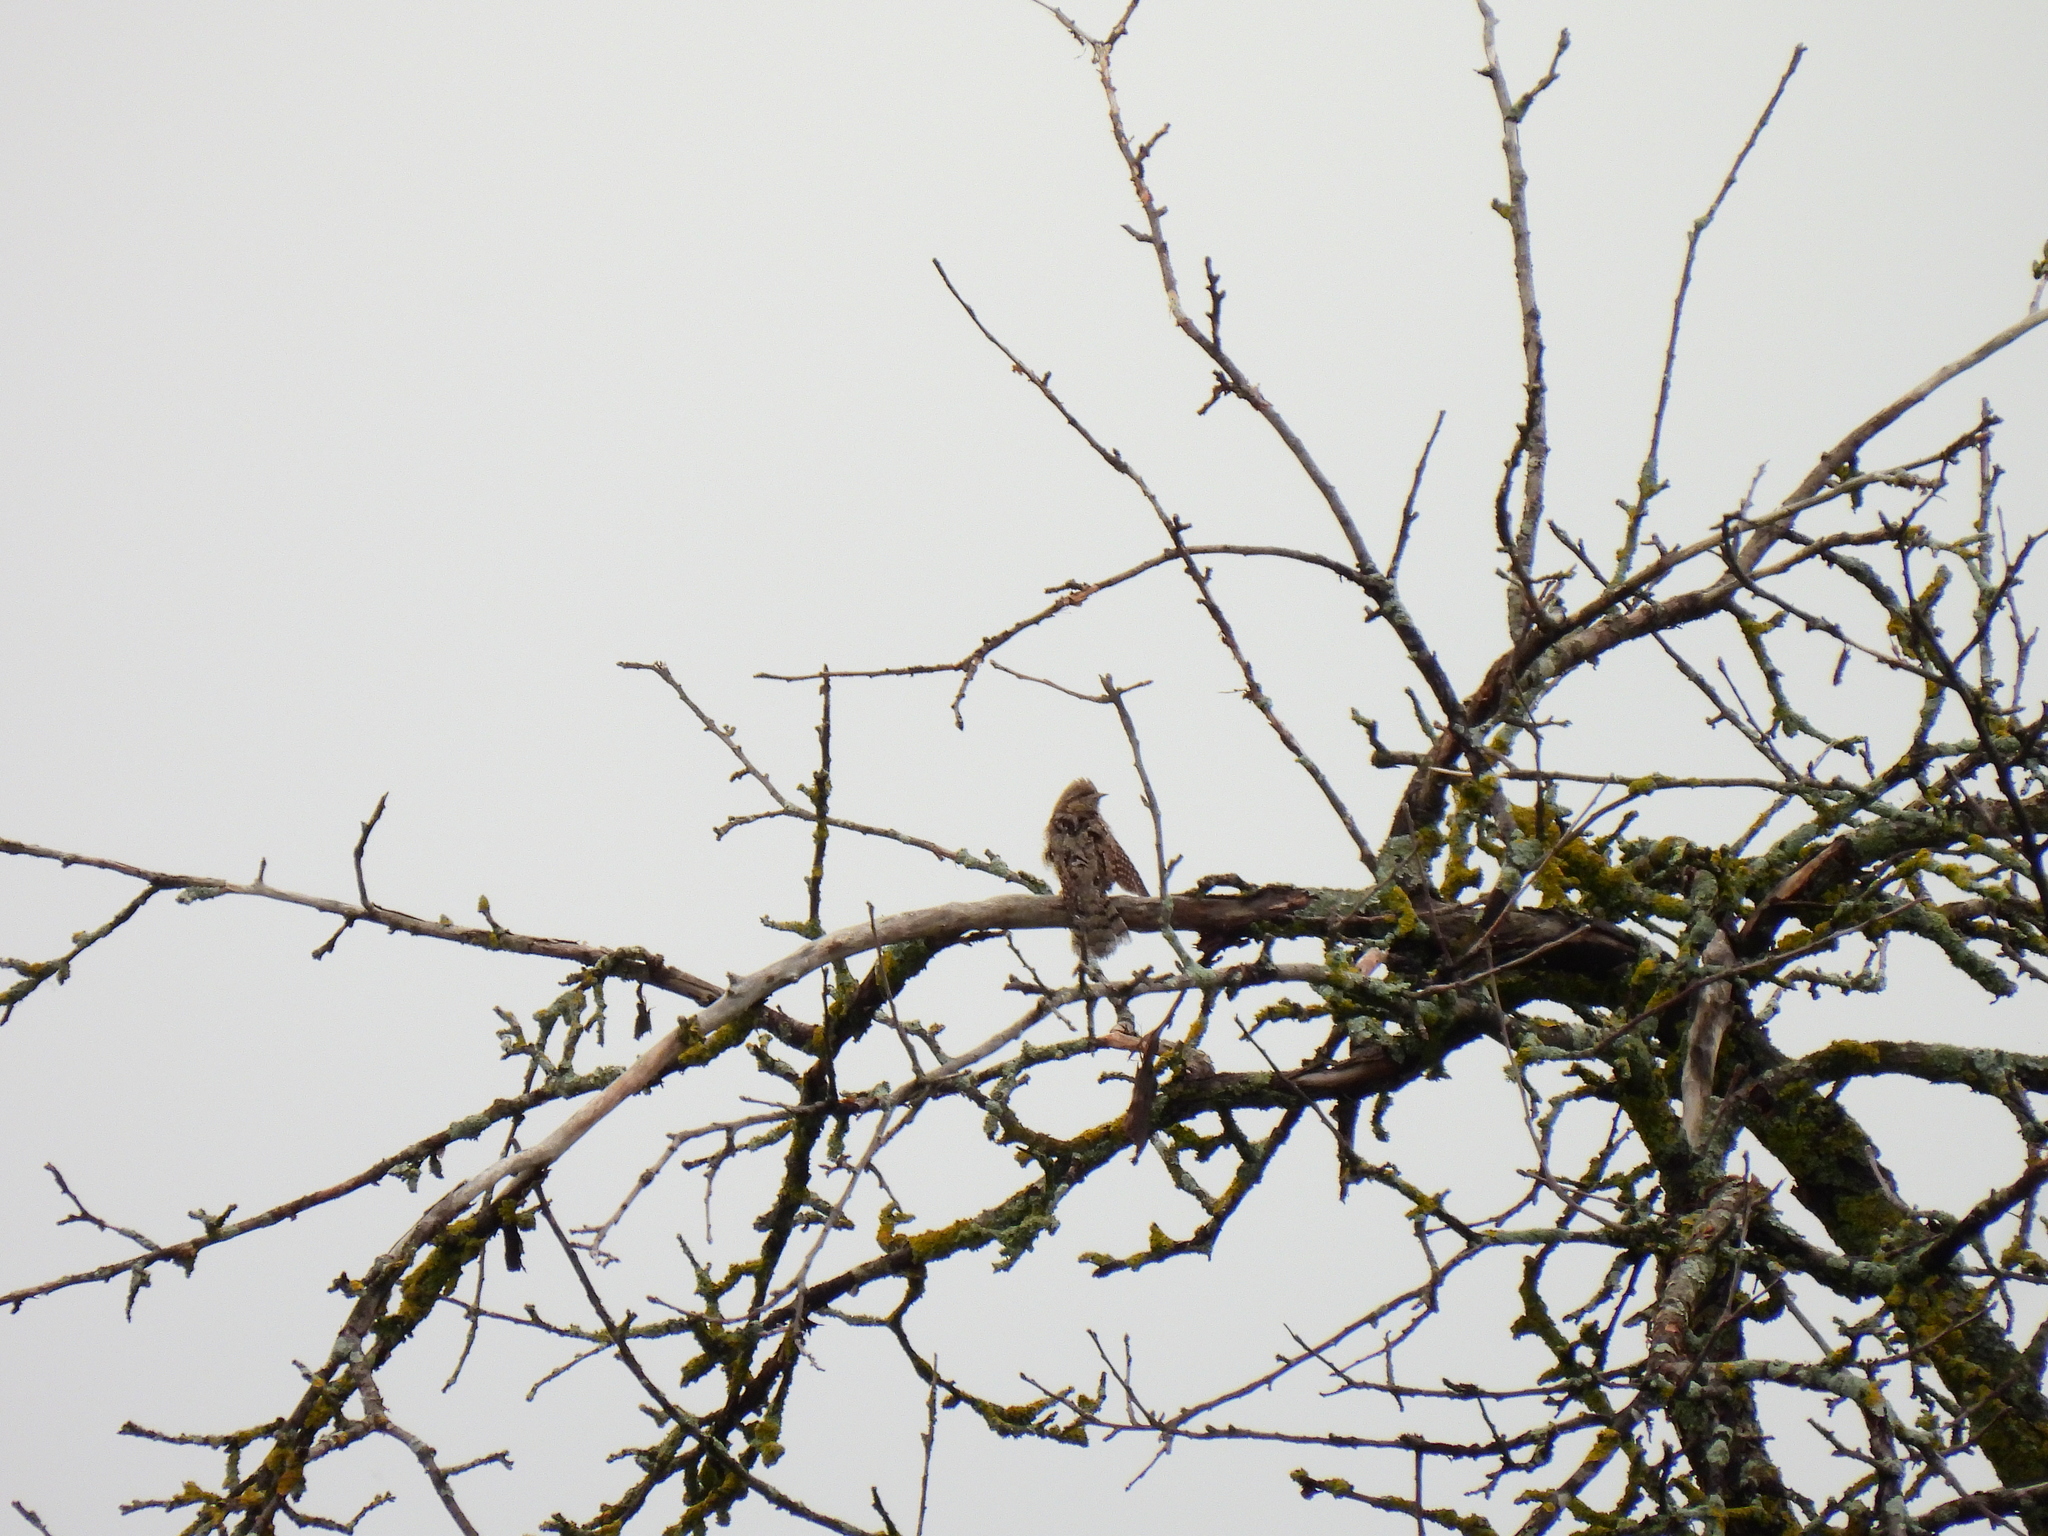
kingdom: Animalia
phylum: Chordata
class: Aves
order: Piciformes
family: Picidae
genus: Jynx
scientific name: Jynx torquilla
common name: Eurasian wryneck
